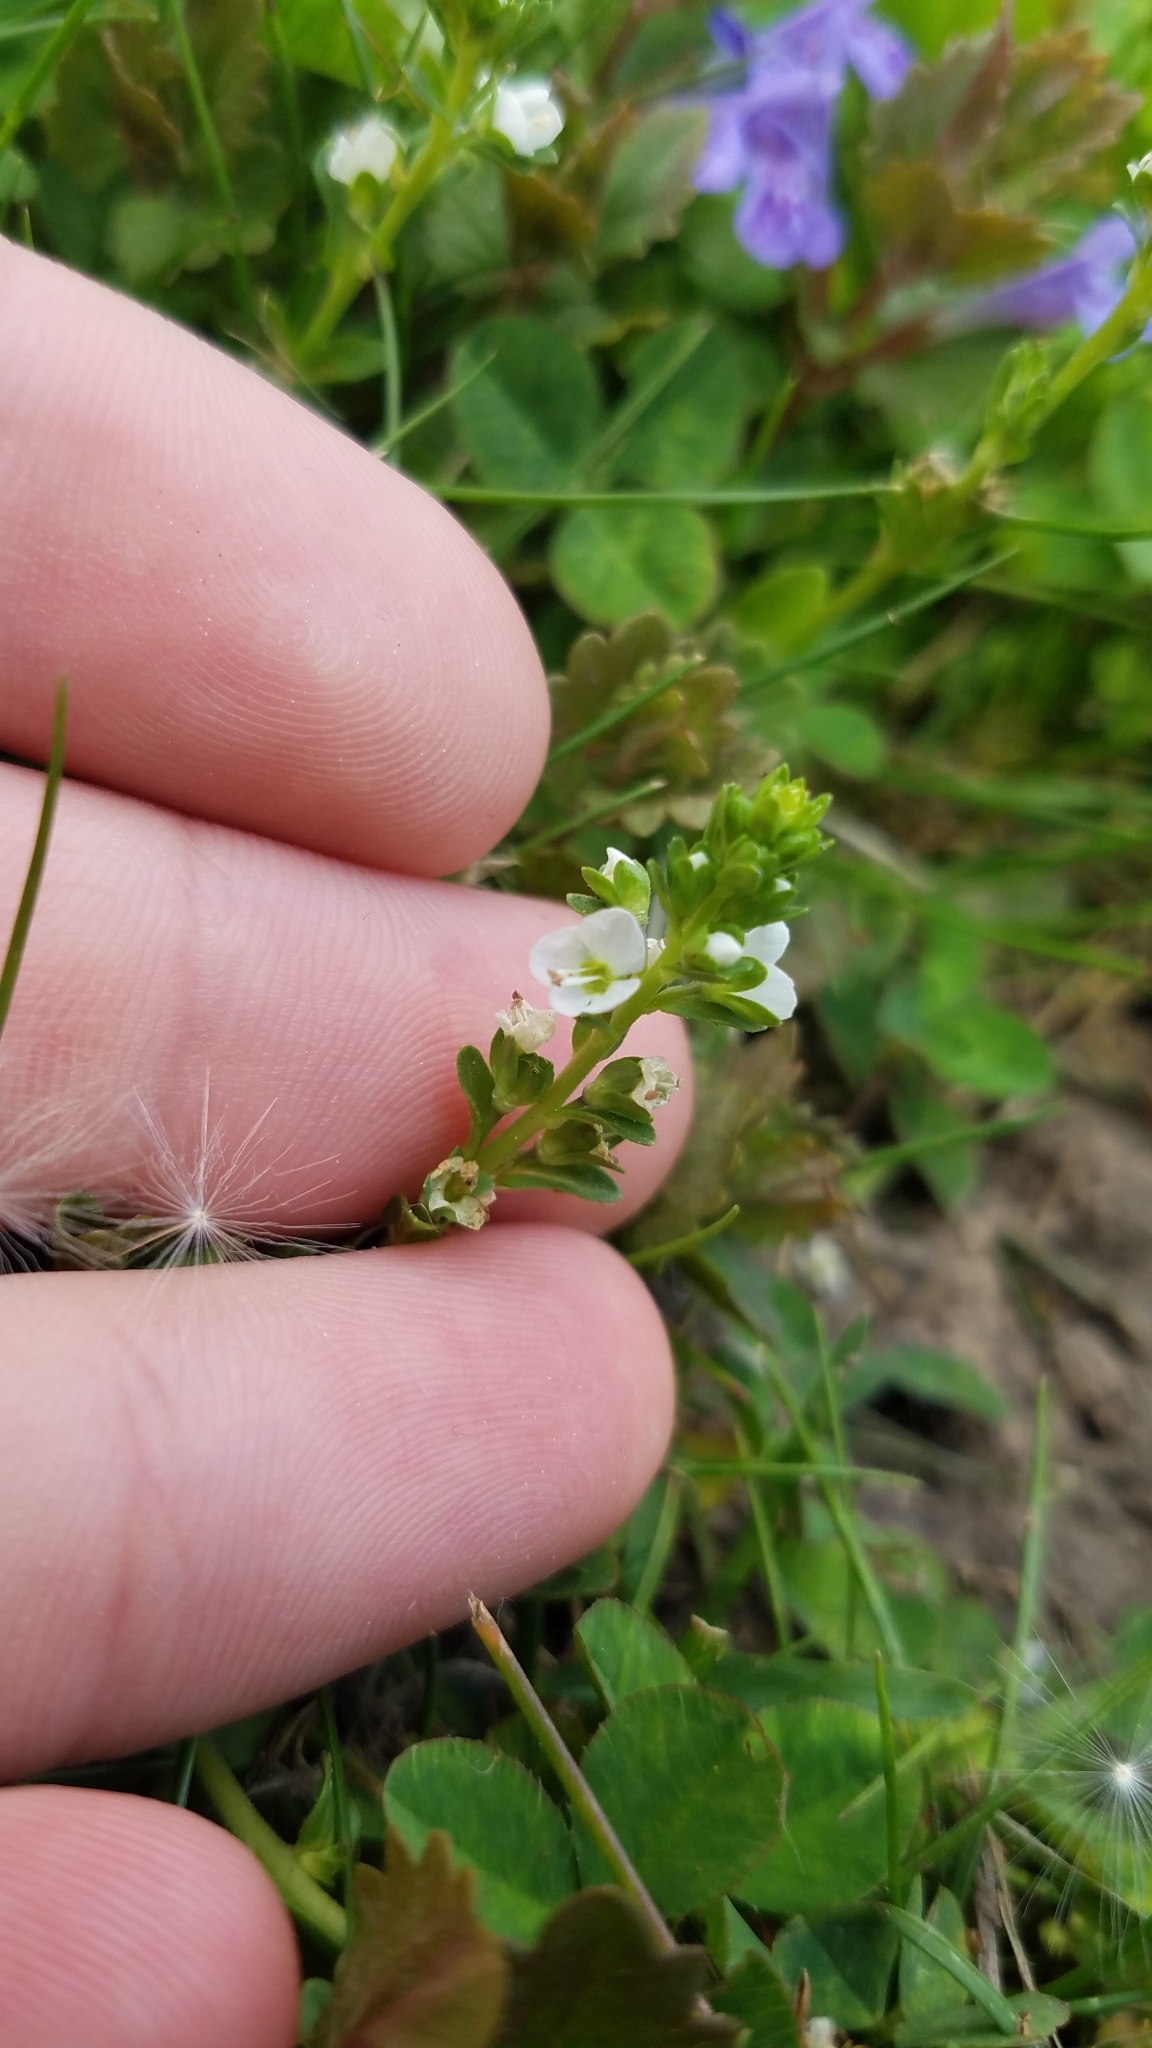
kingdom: Plantae
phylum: Tracheophyta
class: Magnoliopsida
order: Lamiales
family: Plantaginaceae
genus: Veronica
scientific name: Veronica serpyllifolia
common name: Thyme-leaved speedwell
